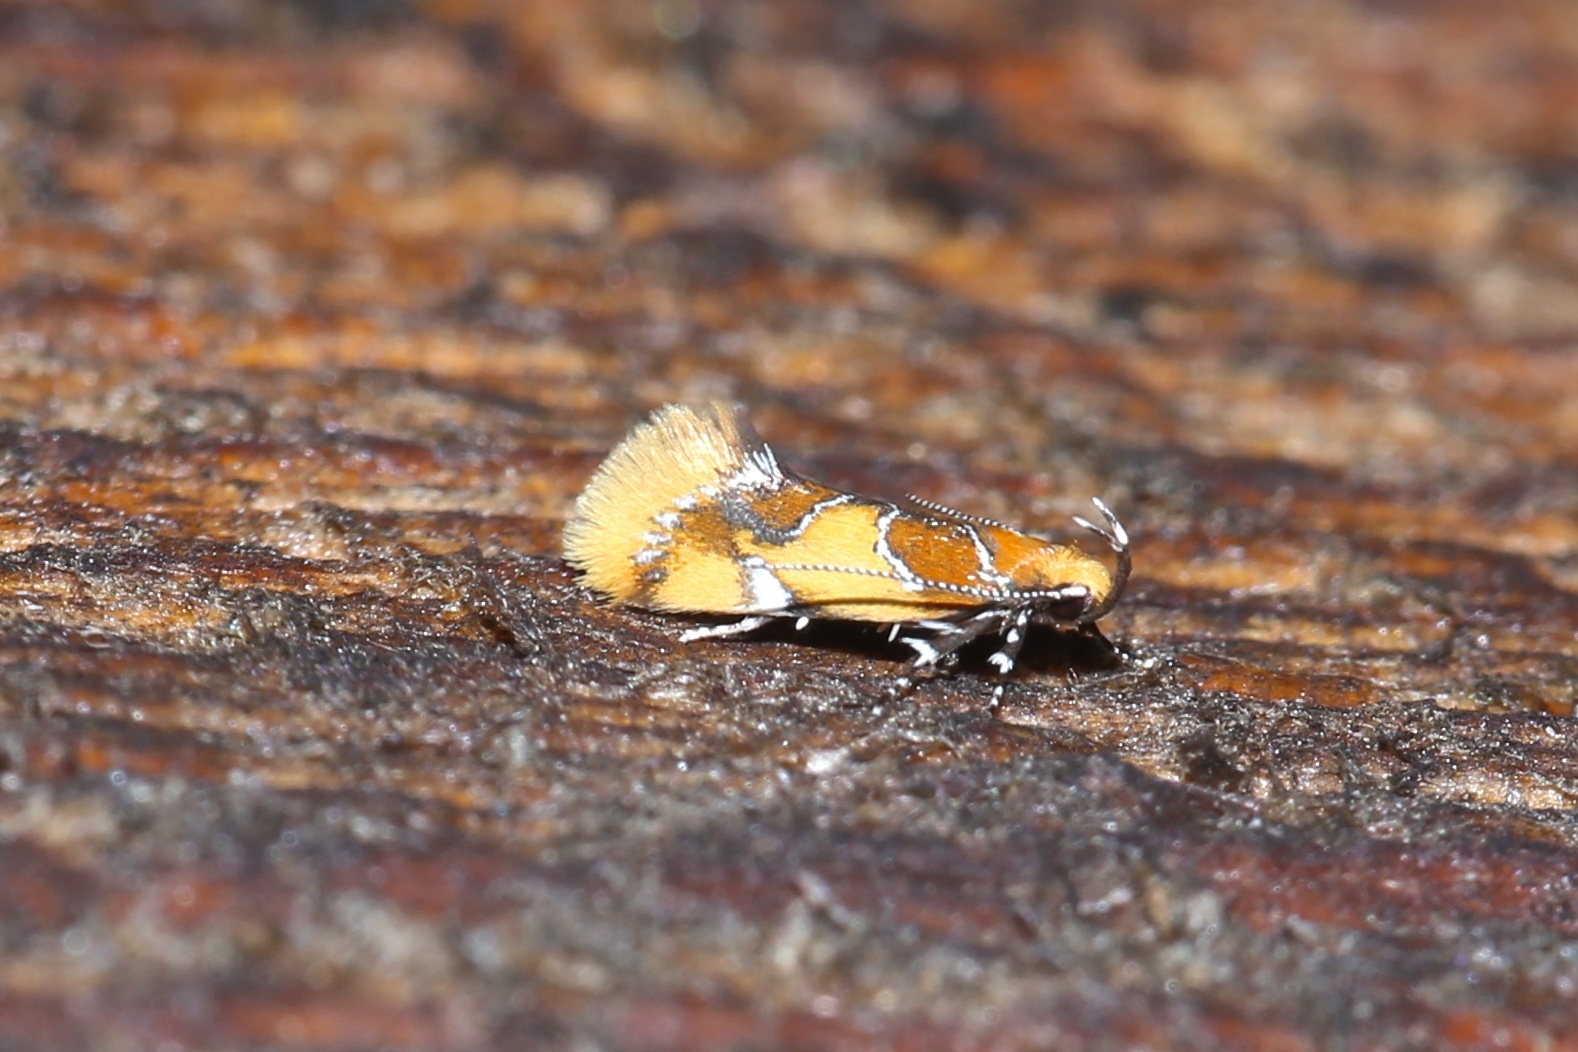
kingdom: Animalia
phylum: Arthropoda
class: Insecta
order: Lepidoptera
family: Oecophoridae
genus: Callima
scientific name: Callima argenticinctella
